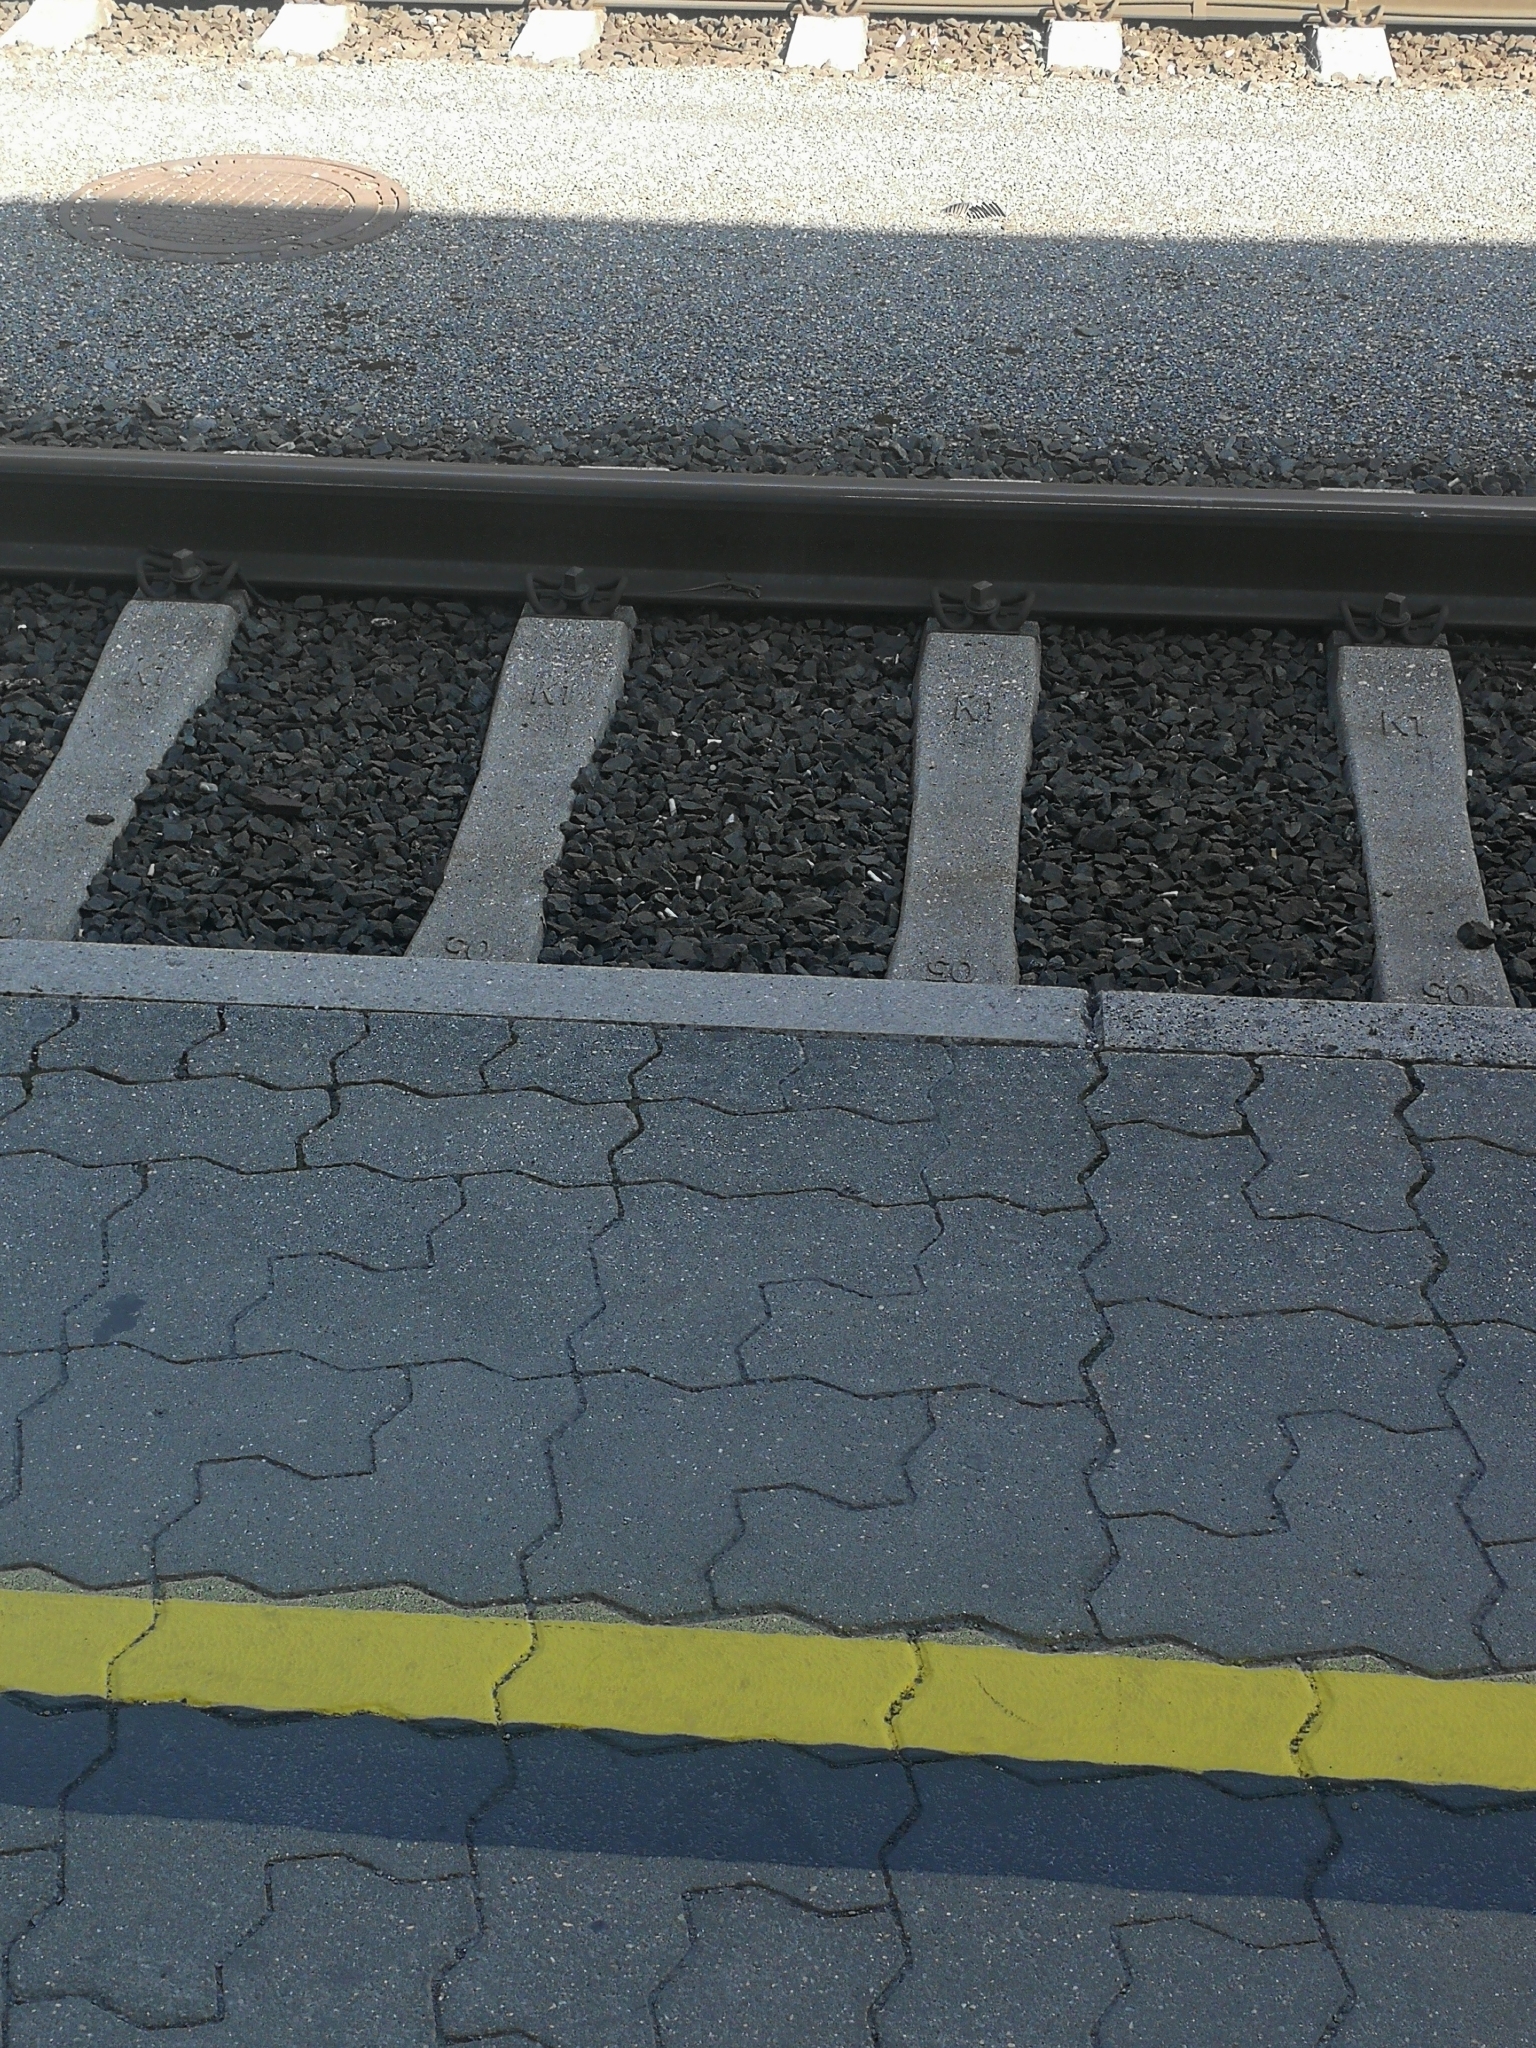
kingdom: Animalia
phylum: Chordata
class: Squamata
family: Lacertidae
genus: Podarcis
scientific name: Podarcis muralis
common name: Common wall lizard
